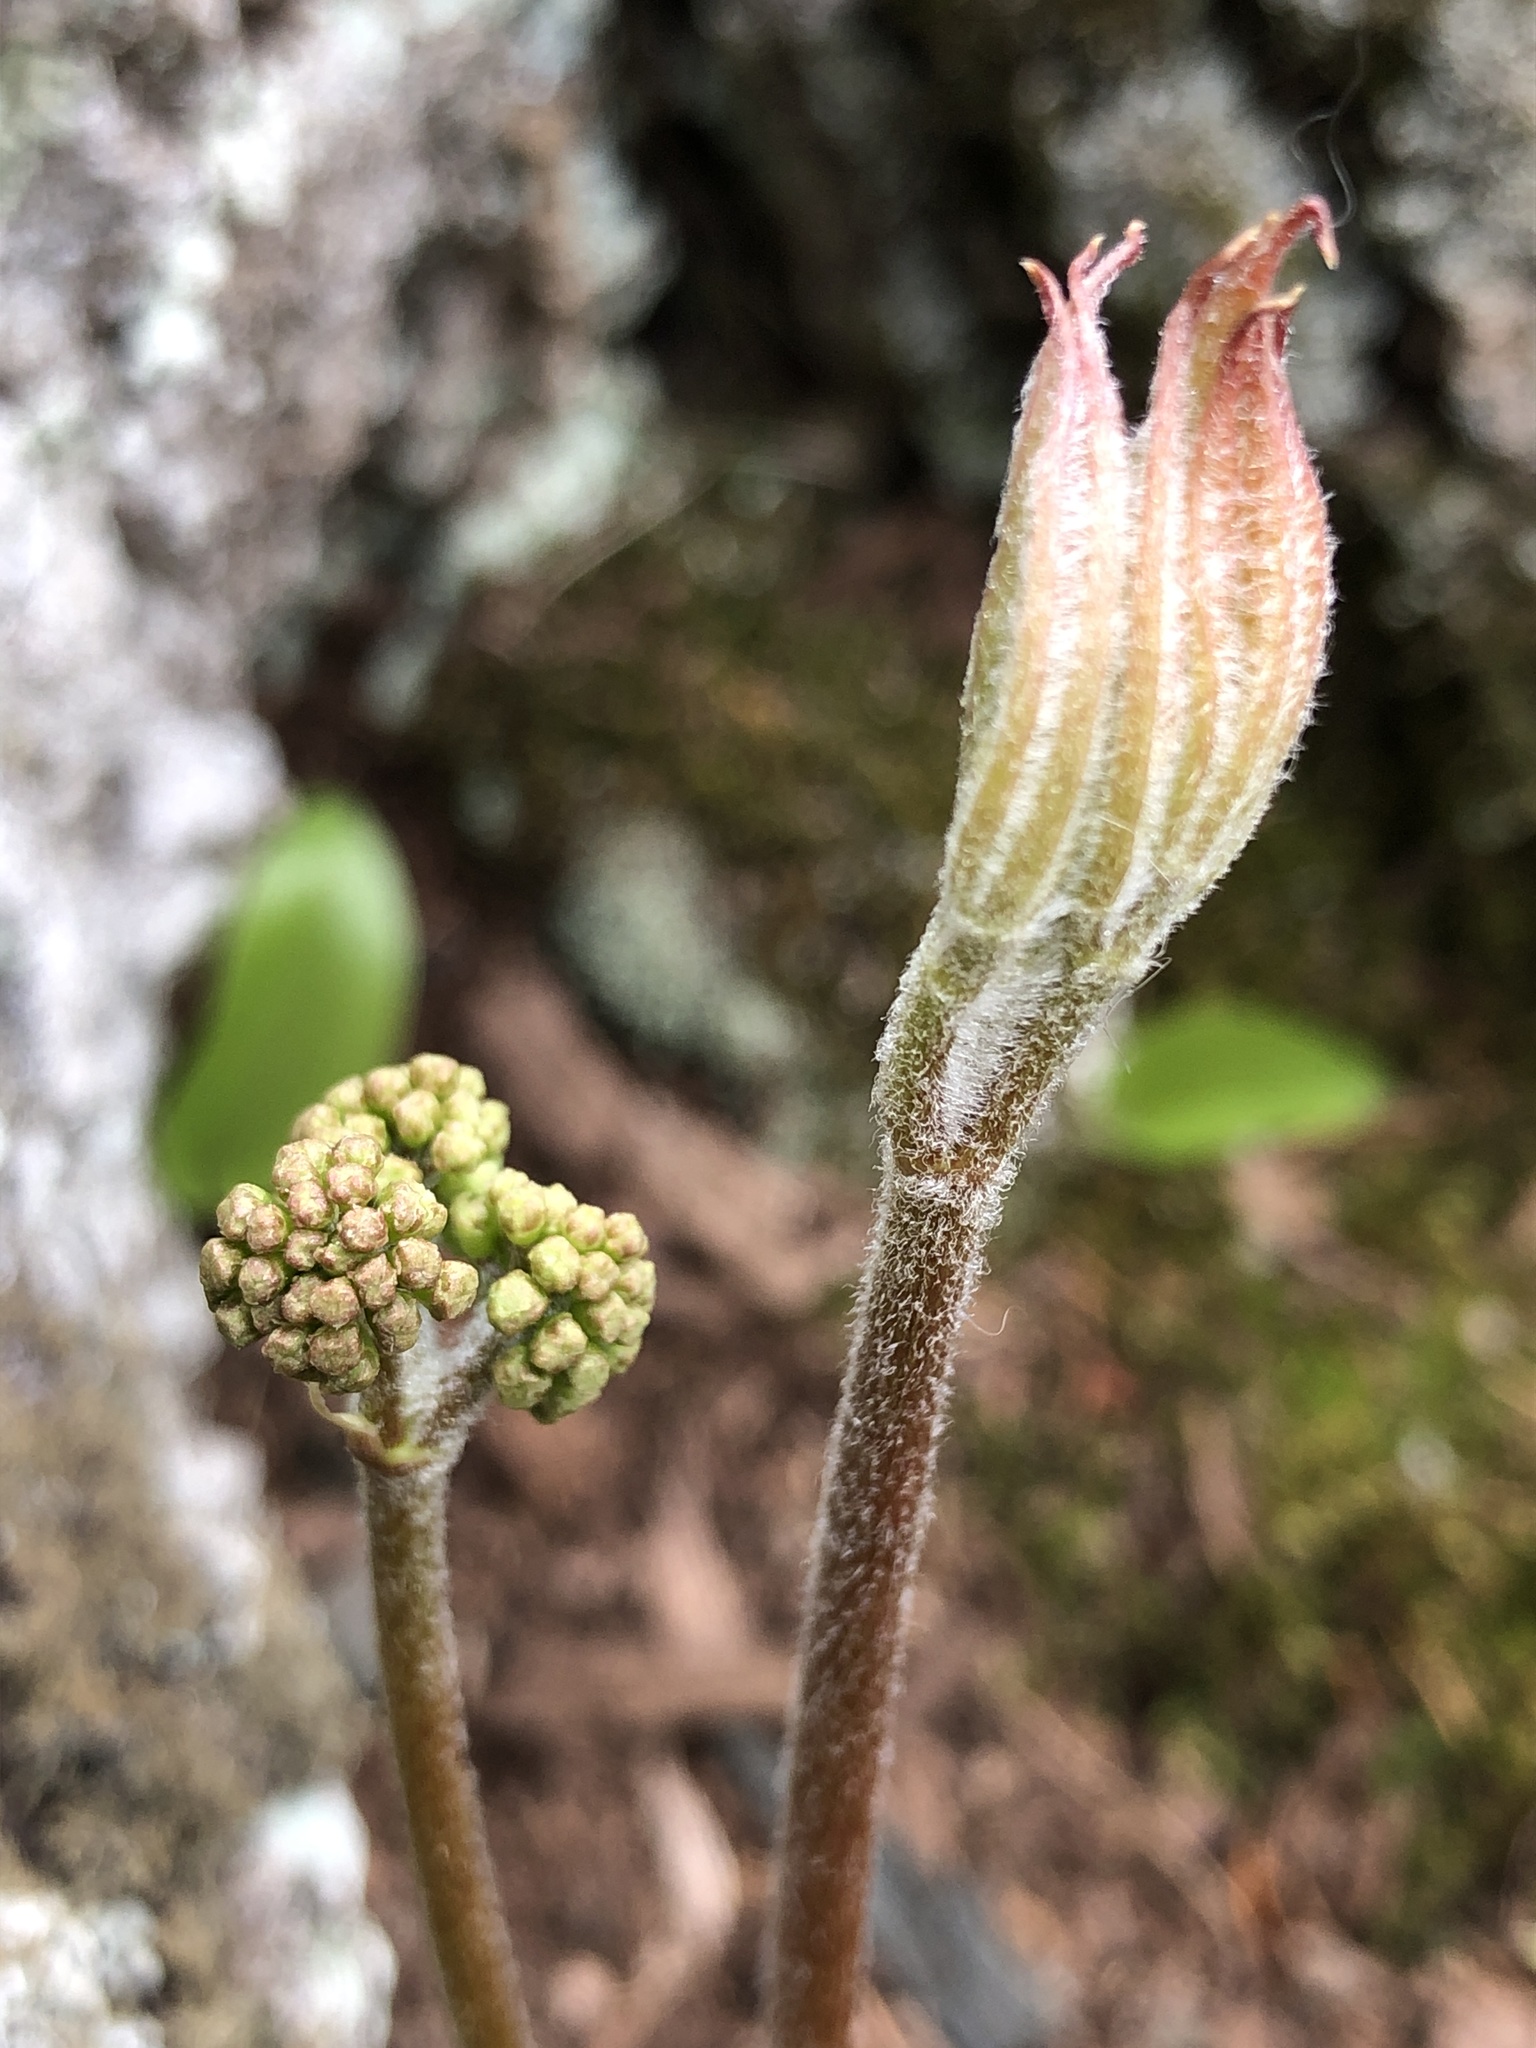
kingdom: Plantae
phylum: Tracheophyta
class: Magnoliopsida
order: Apiales
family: Araliaceae
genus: Aralia
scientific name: Aralia nudicaulis
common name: Wild sarsaparilla
